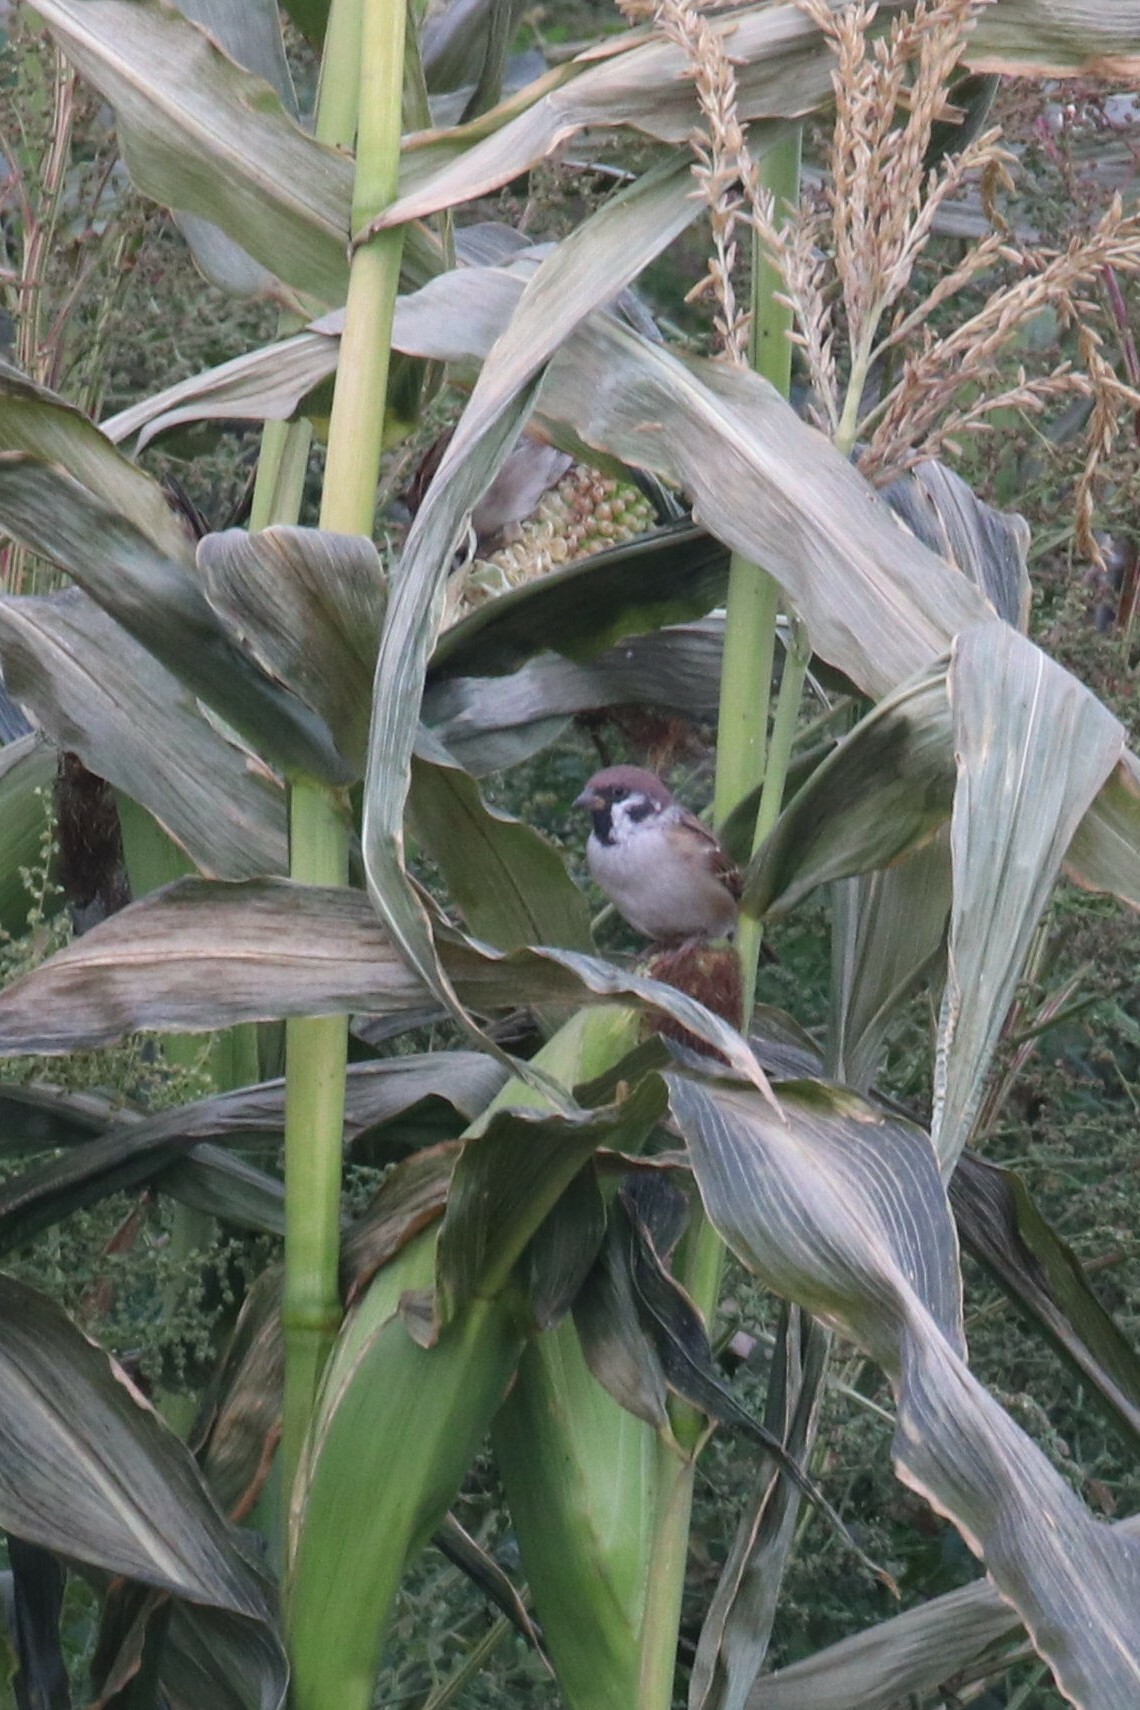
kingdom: Animalia
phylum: Chordata
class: Aves
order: Passeriformes
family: Passeridae
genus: Passer
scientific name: Passer montanus
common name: Eurasian tree sparrow
